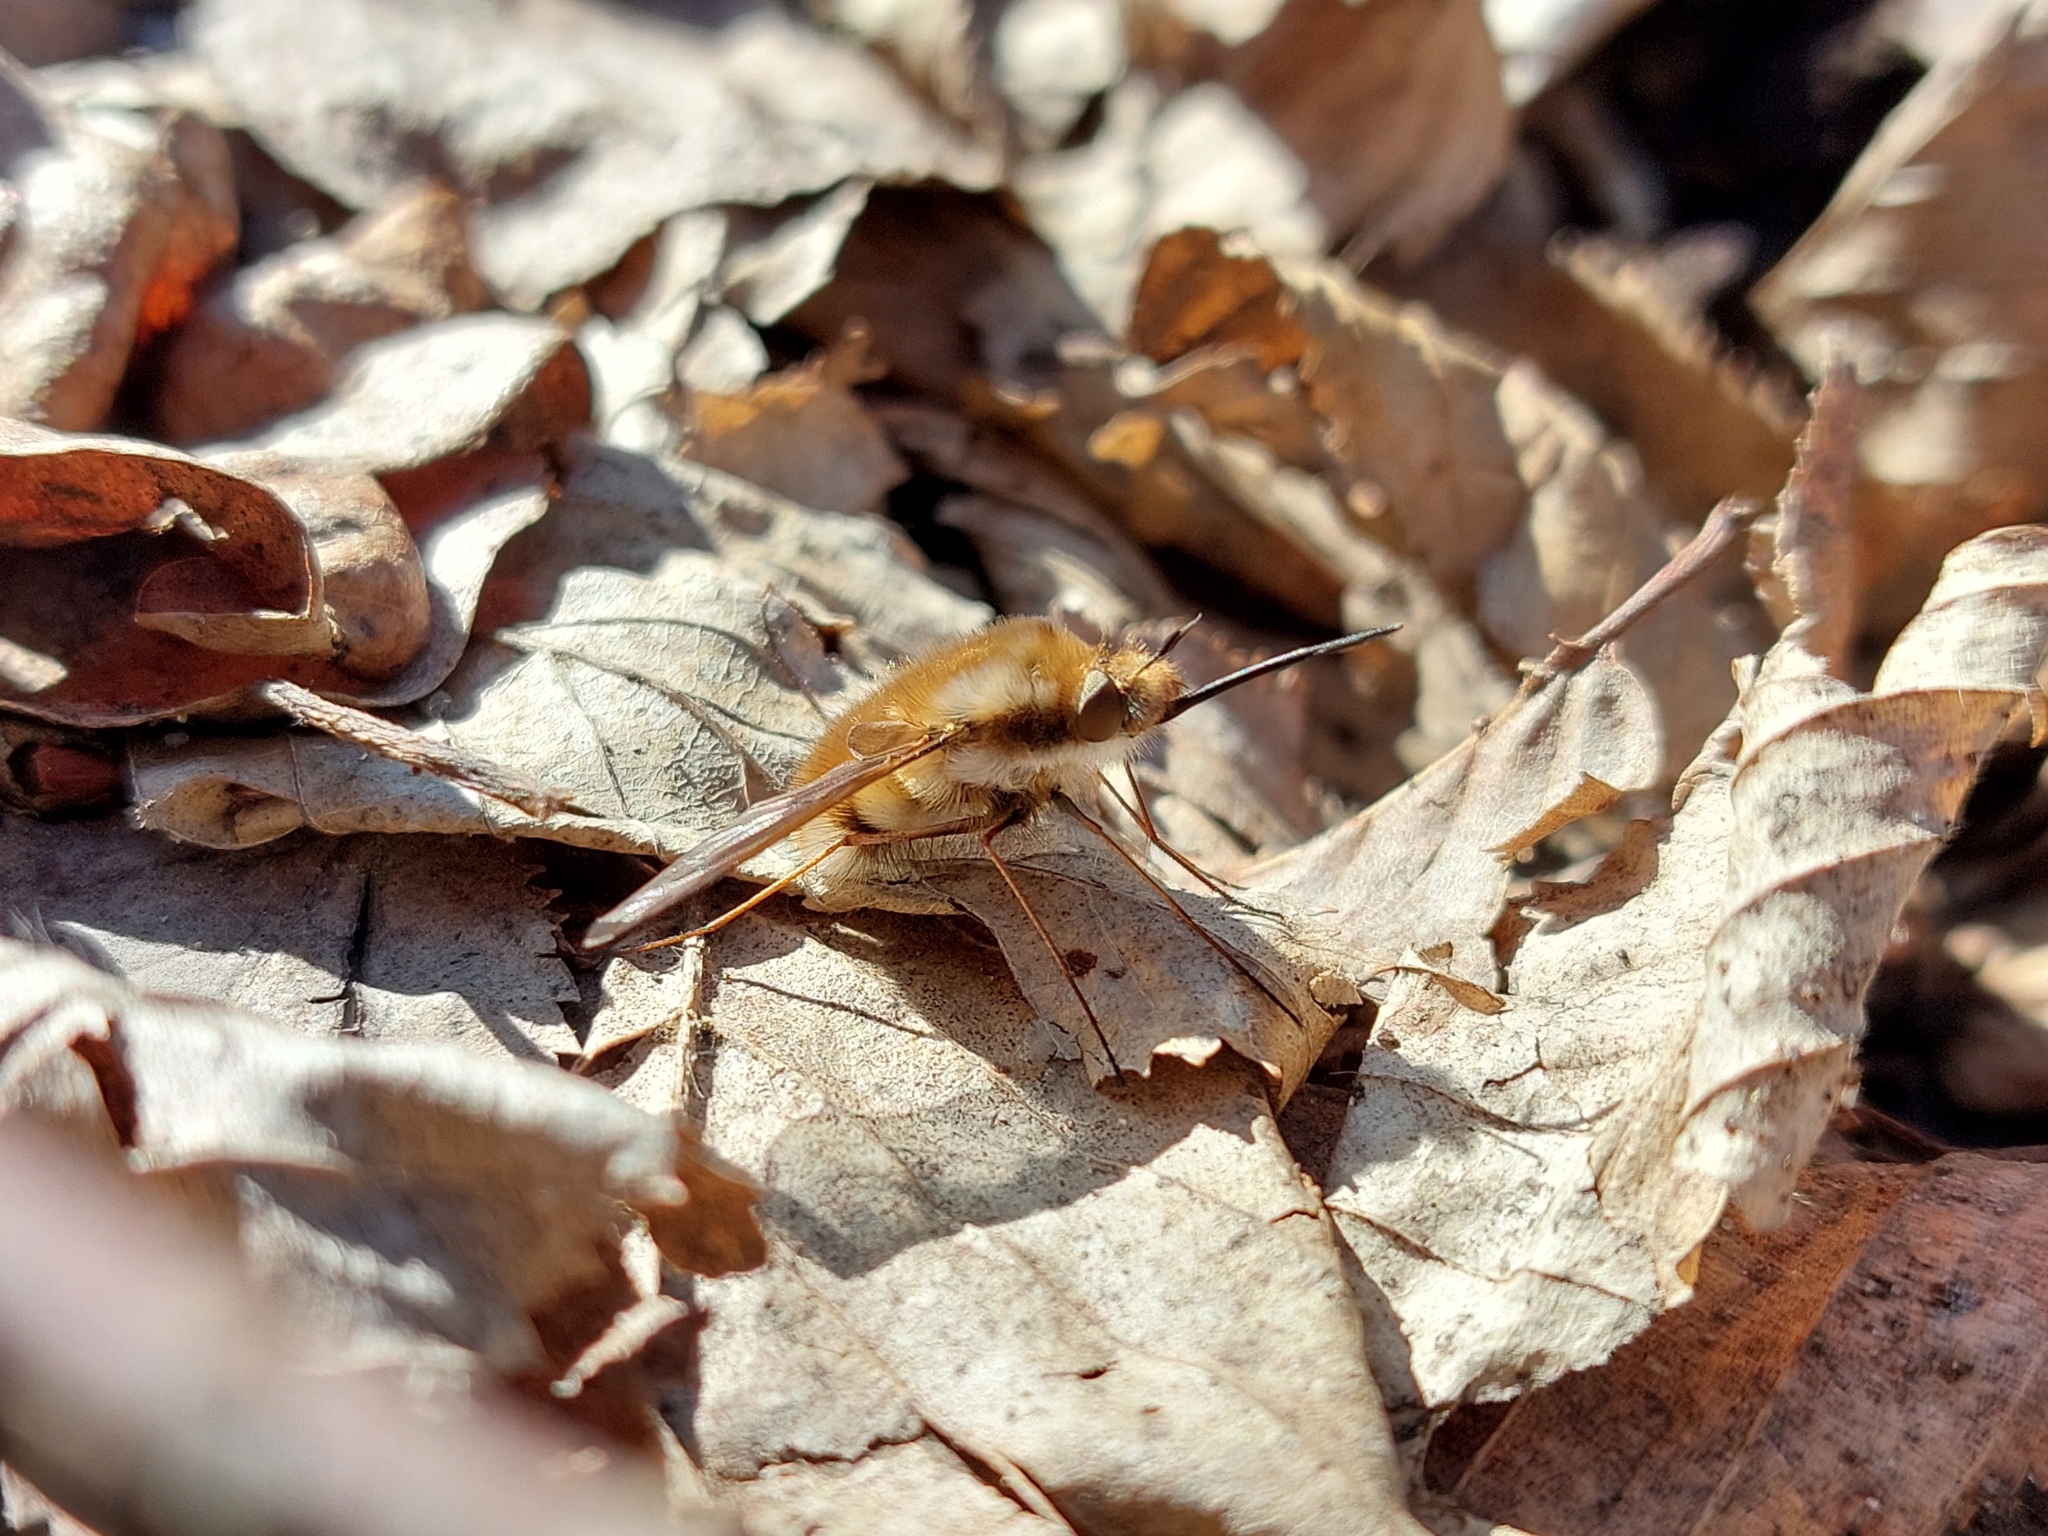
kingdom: Animalia
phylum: Arthropoda
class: Insecta
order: Diptera
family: Bombyliidae
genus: Bombylius
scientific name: Bombylius major
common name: Bee fly
